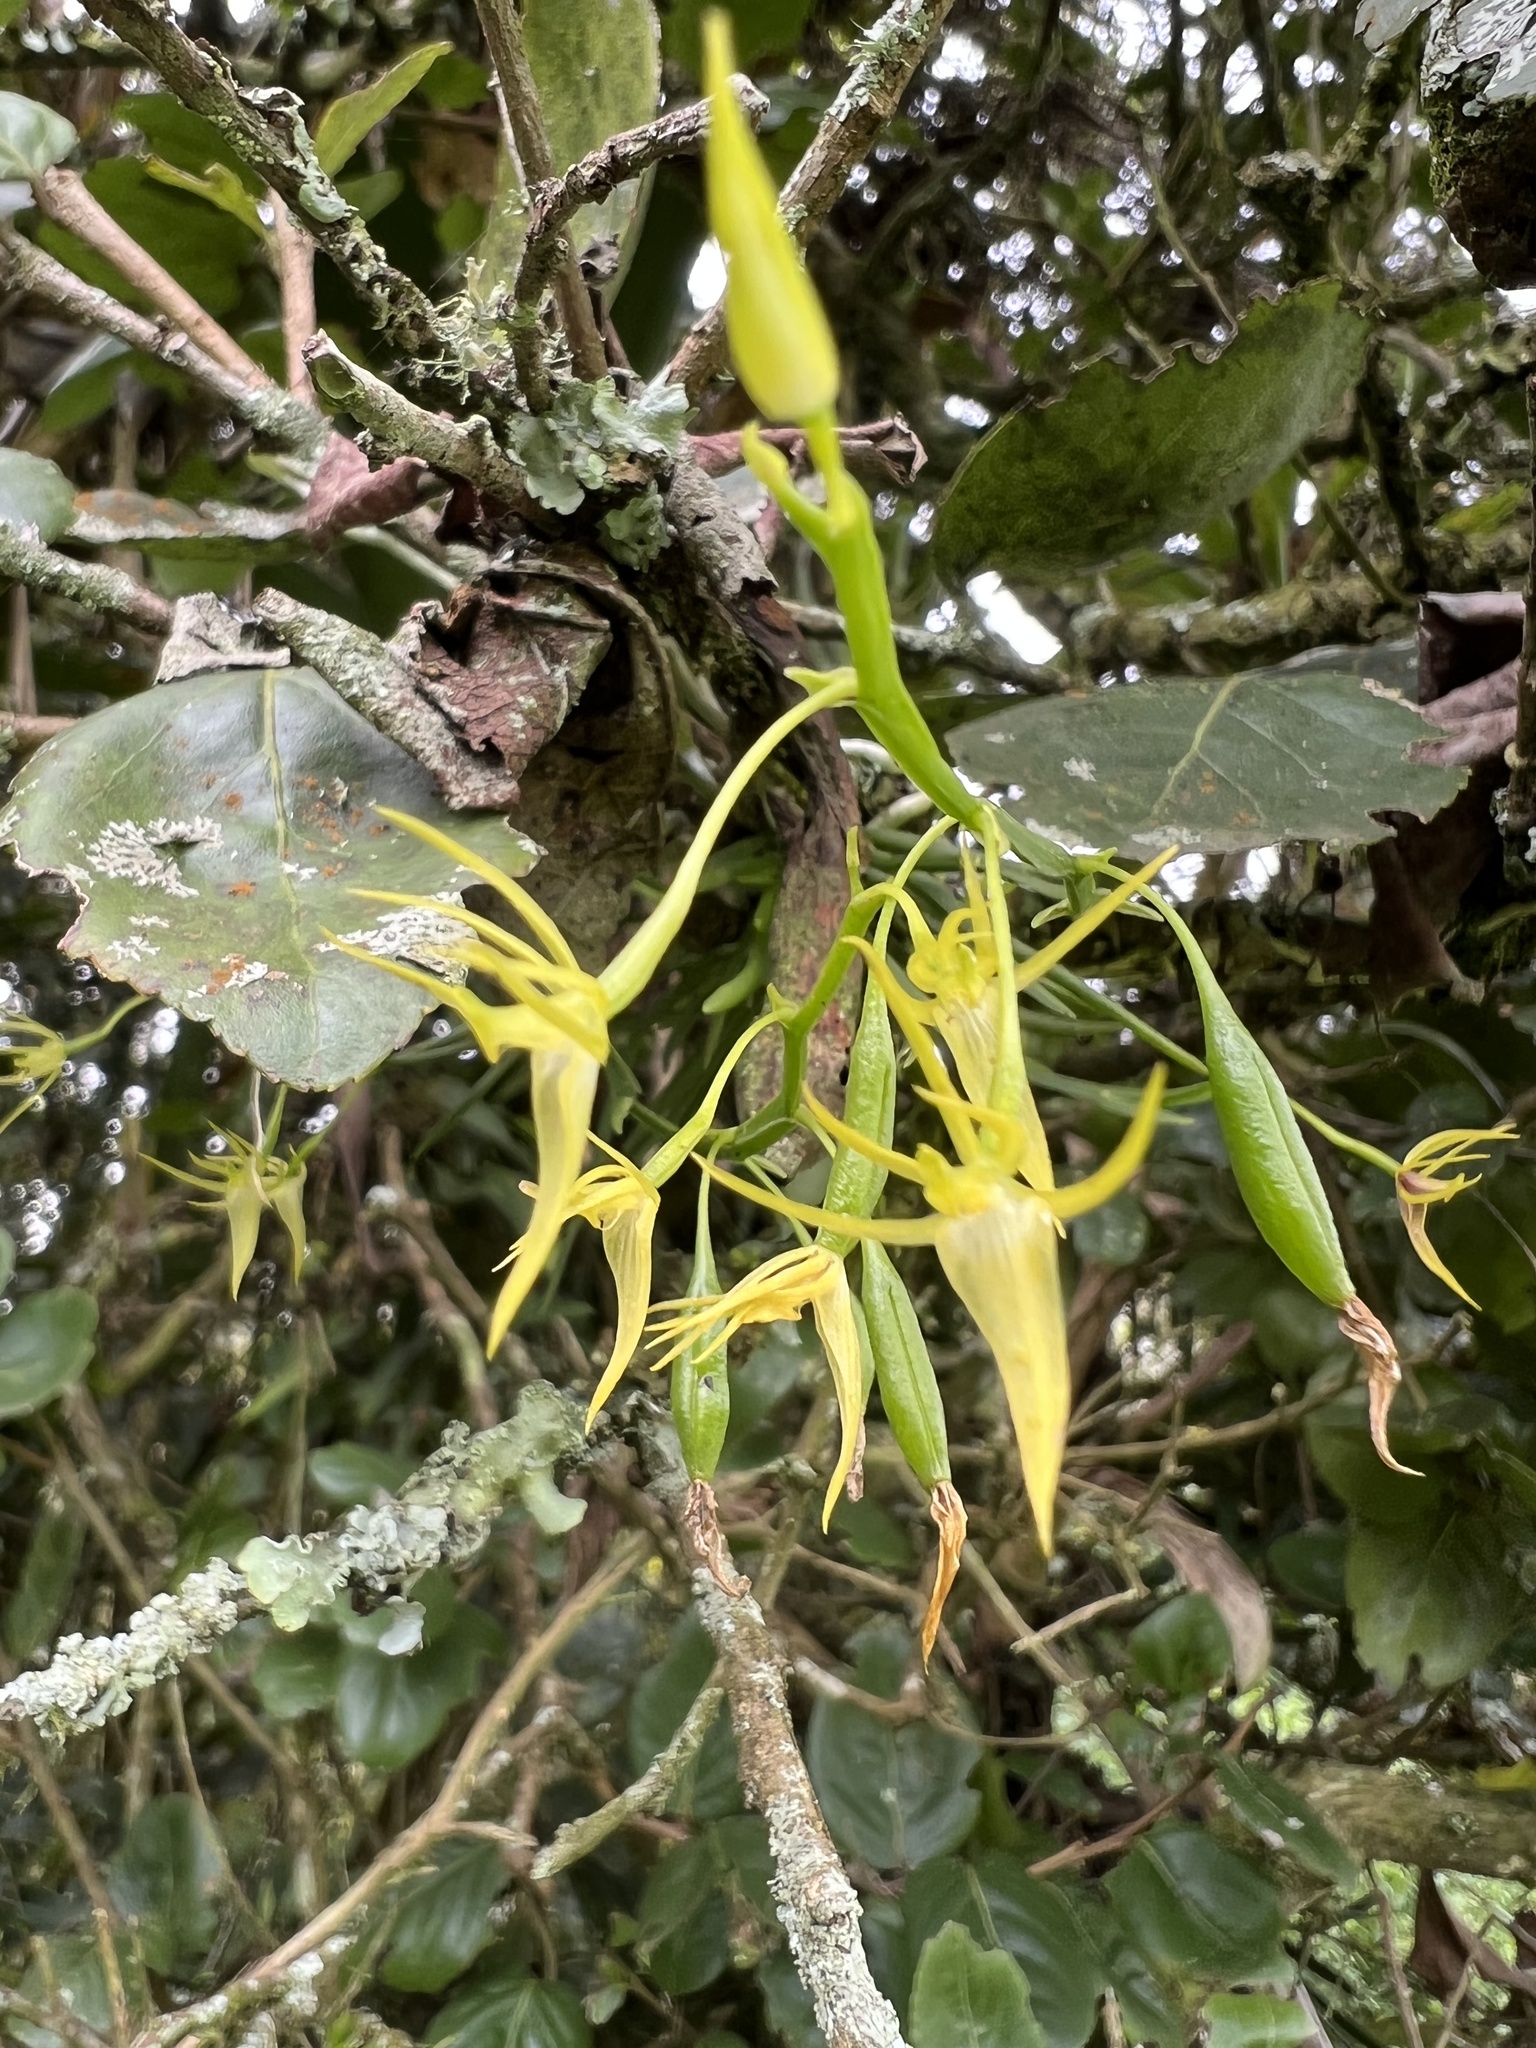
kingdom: Plantae
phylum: Tracheophyta
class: Liliopsida
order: Asparagales
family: Orchidaceae
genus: Hofmeisterella
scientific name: Hofmeisterella eumicroscopica
